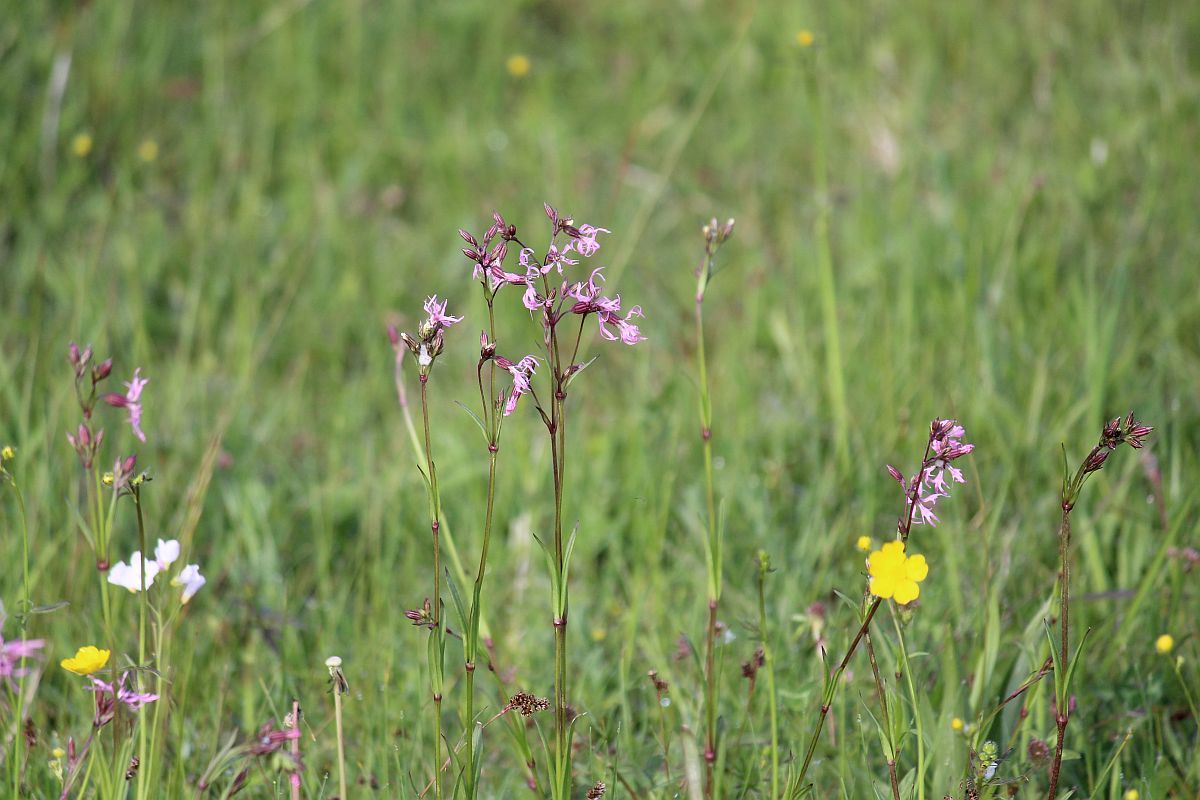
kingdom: Plantae
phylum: Tracheophyta
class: Magnoliopsida
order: Caryophyllales
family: Caryophyllaceae
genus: Silene
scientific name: Silene flos-cuculi
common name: Ragged-robin
